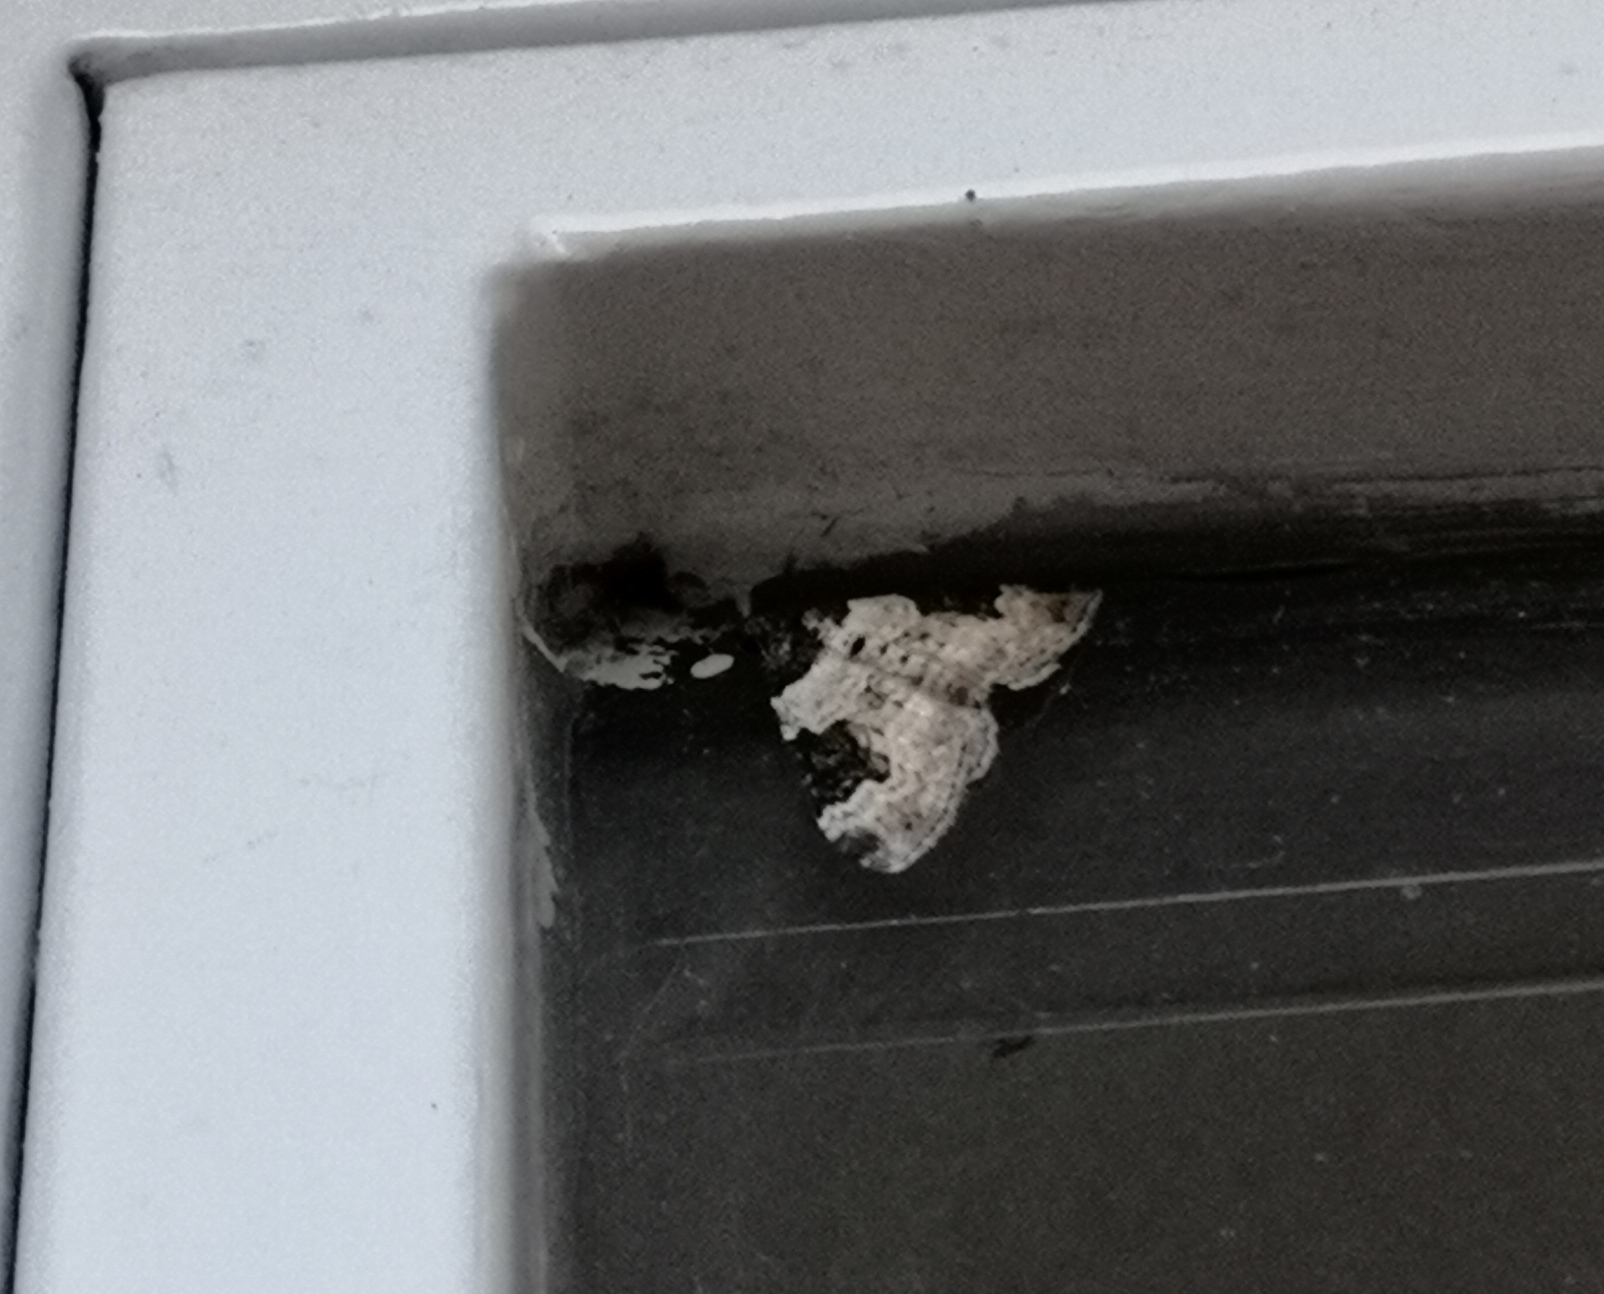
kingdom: Animalia
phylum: Arthropoda
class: Insecta
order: Lepidoptera
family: Geometridae
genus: Xanthorhoe
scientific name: Xanthorhoe fluctuata
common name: Garden carpet
